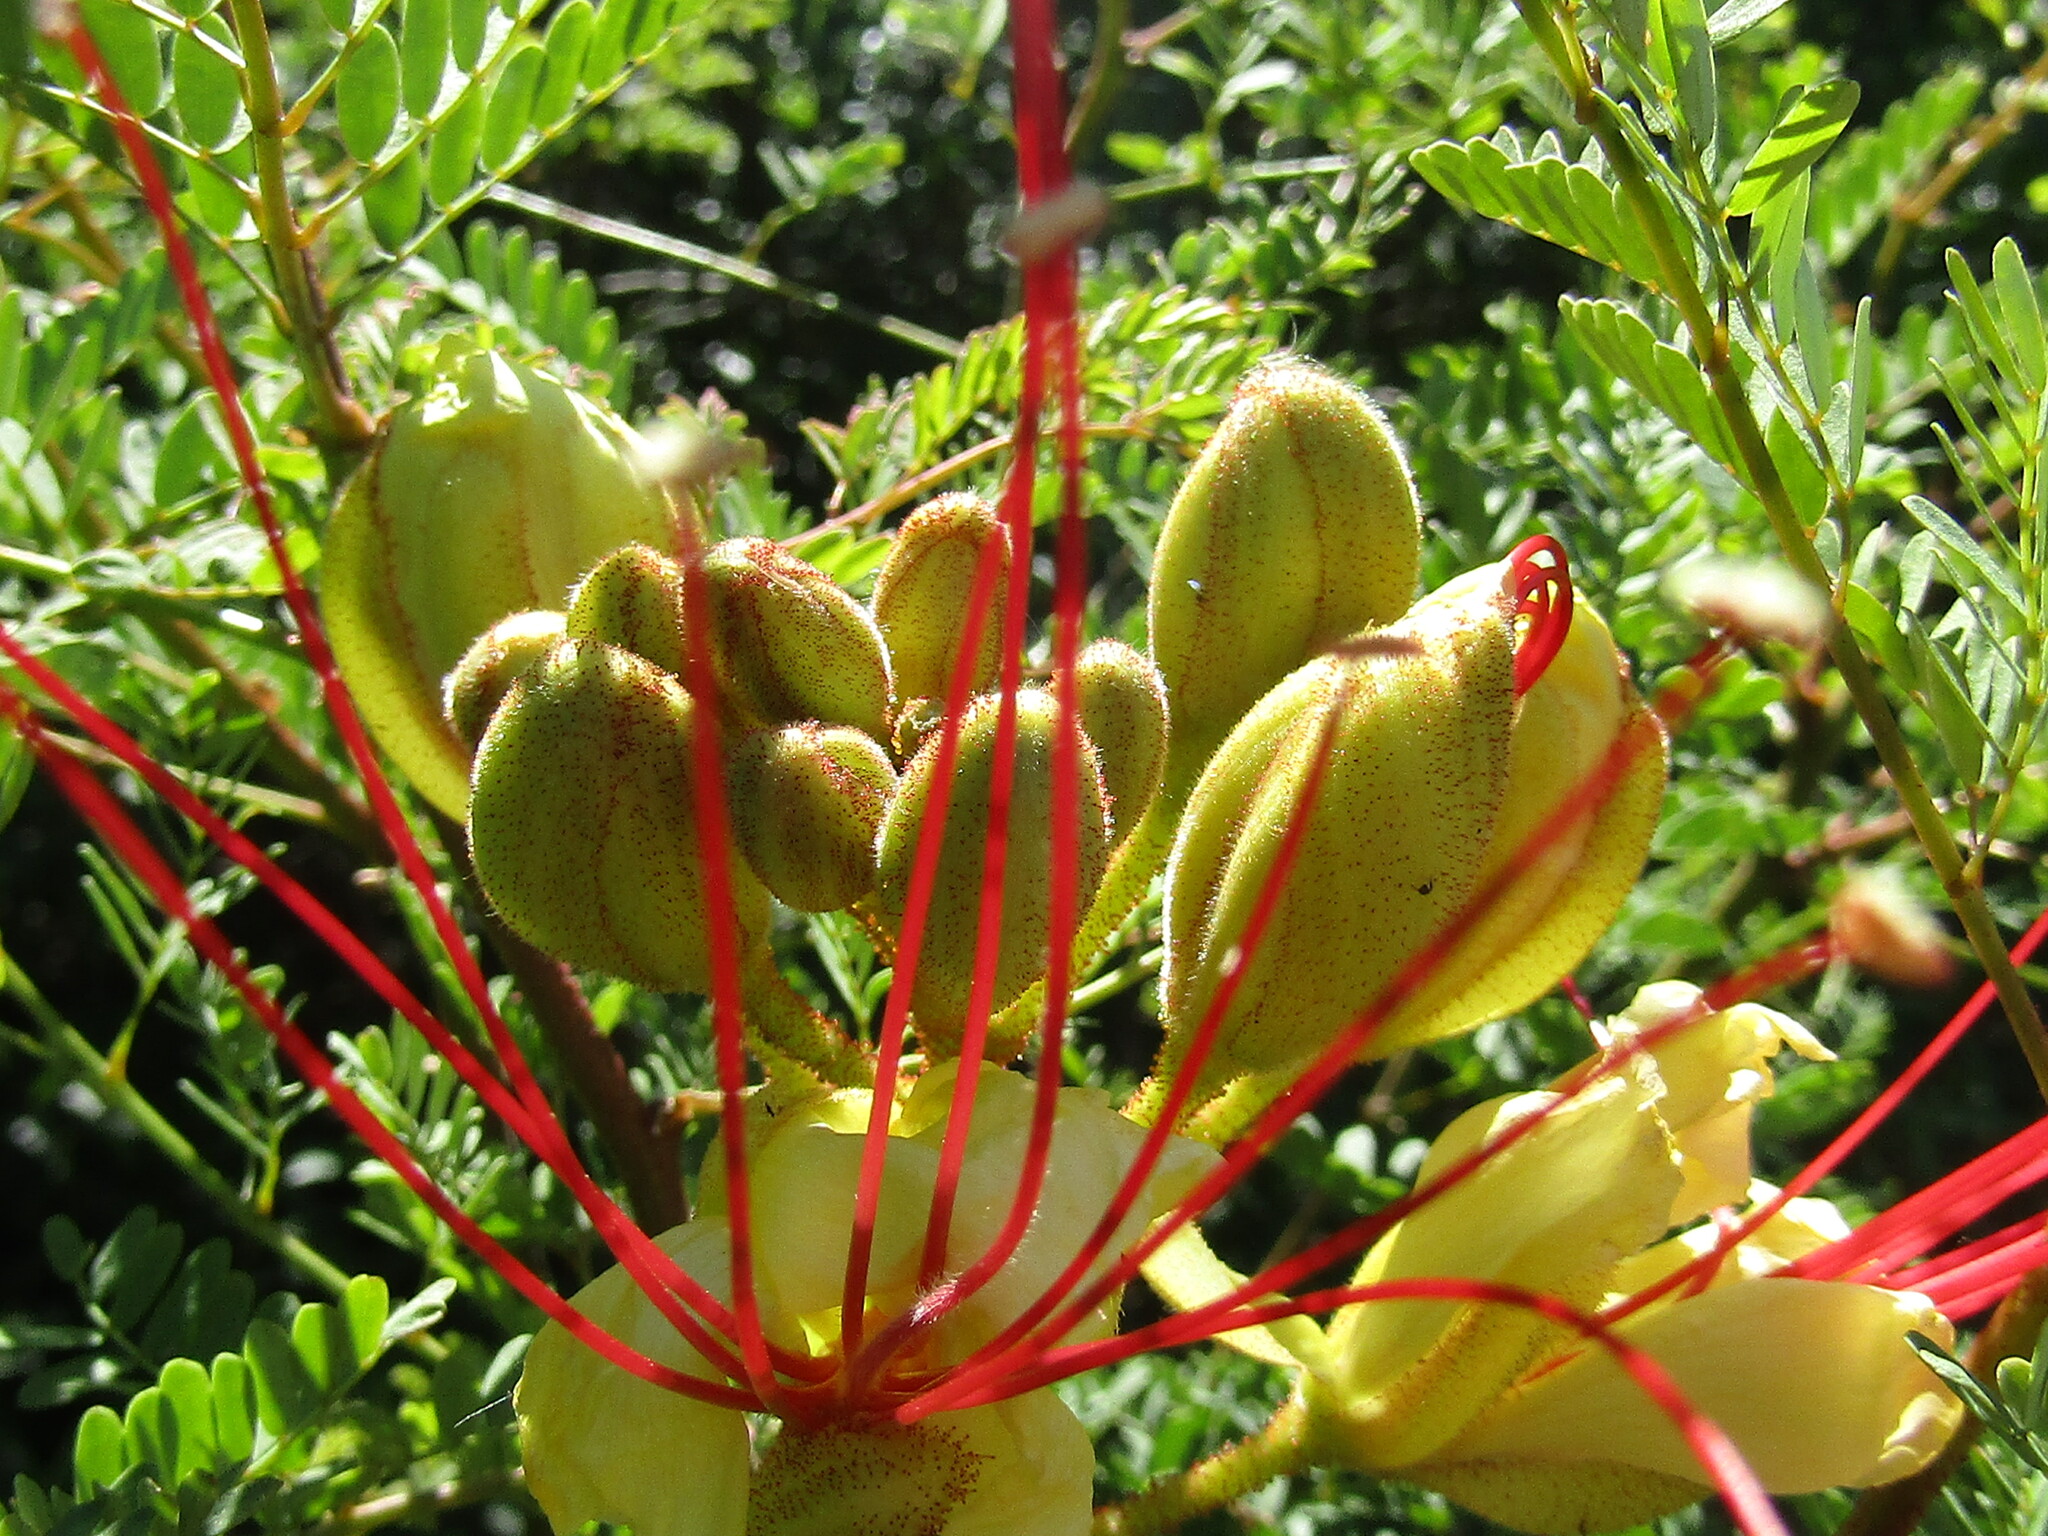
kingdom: Plantae
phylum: Tracheophyta
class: Magnoliopsida
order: Fabales
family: Fabaceae
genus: Erythrostemon
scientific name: Erythrostemon gilliesii
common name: Bird-of-paradise shrub
